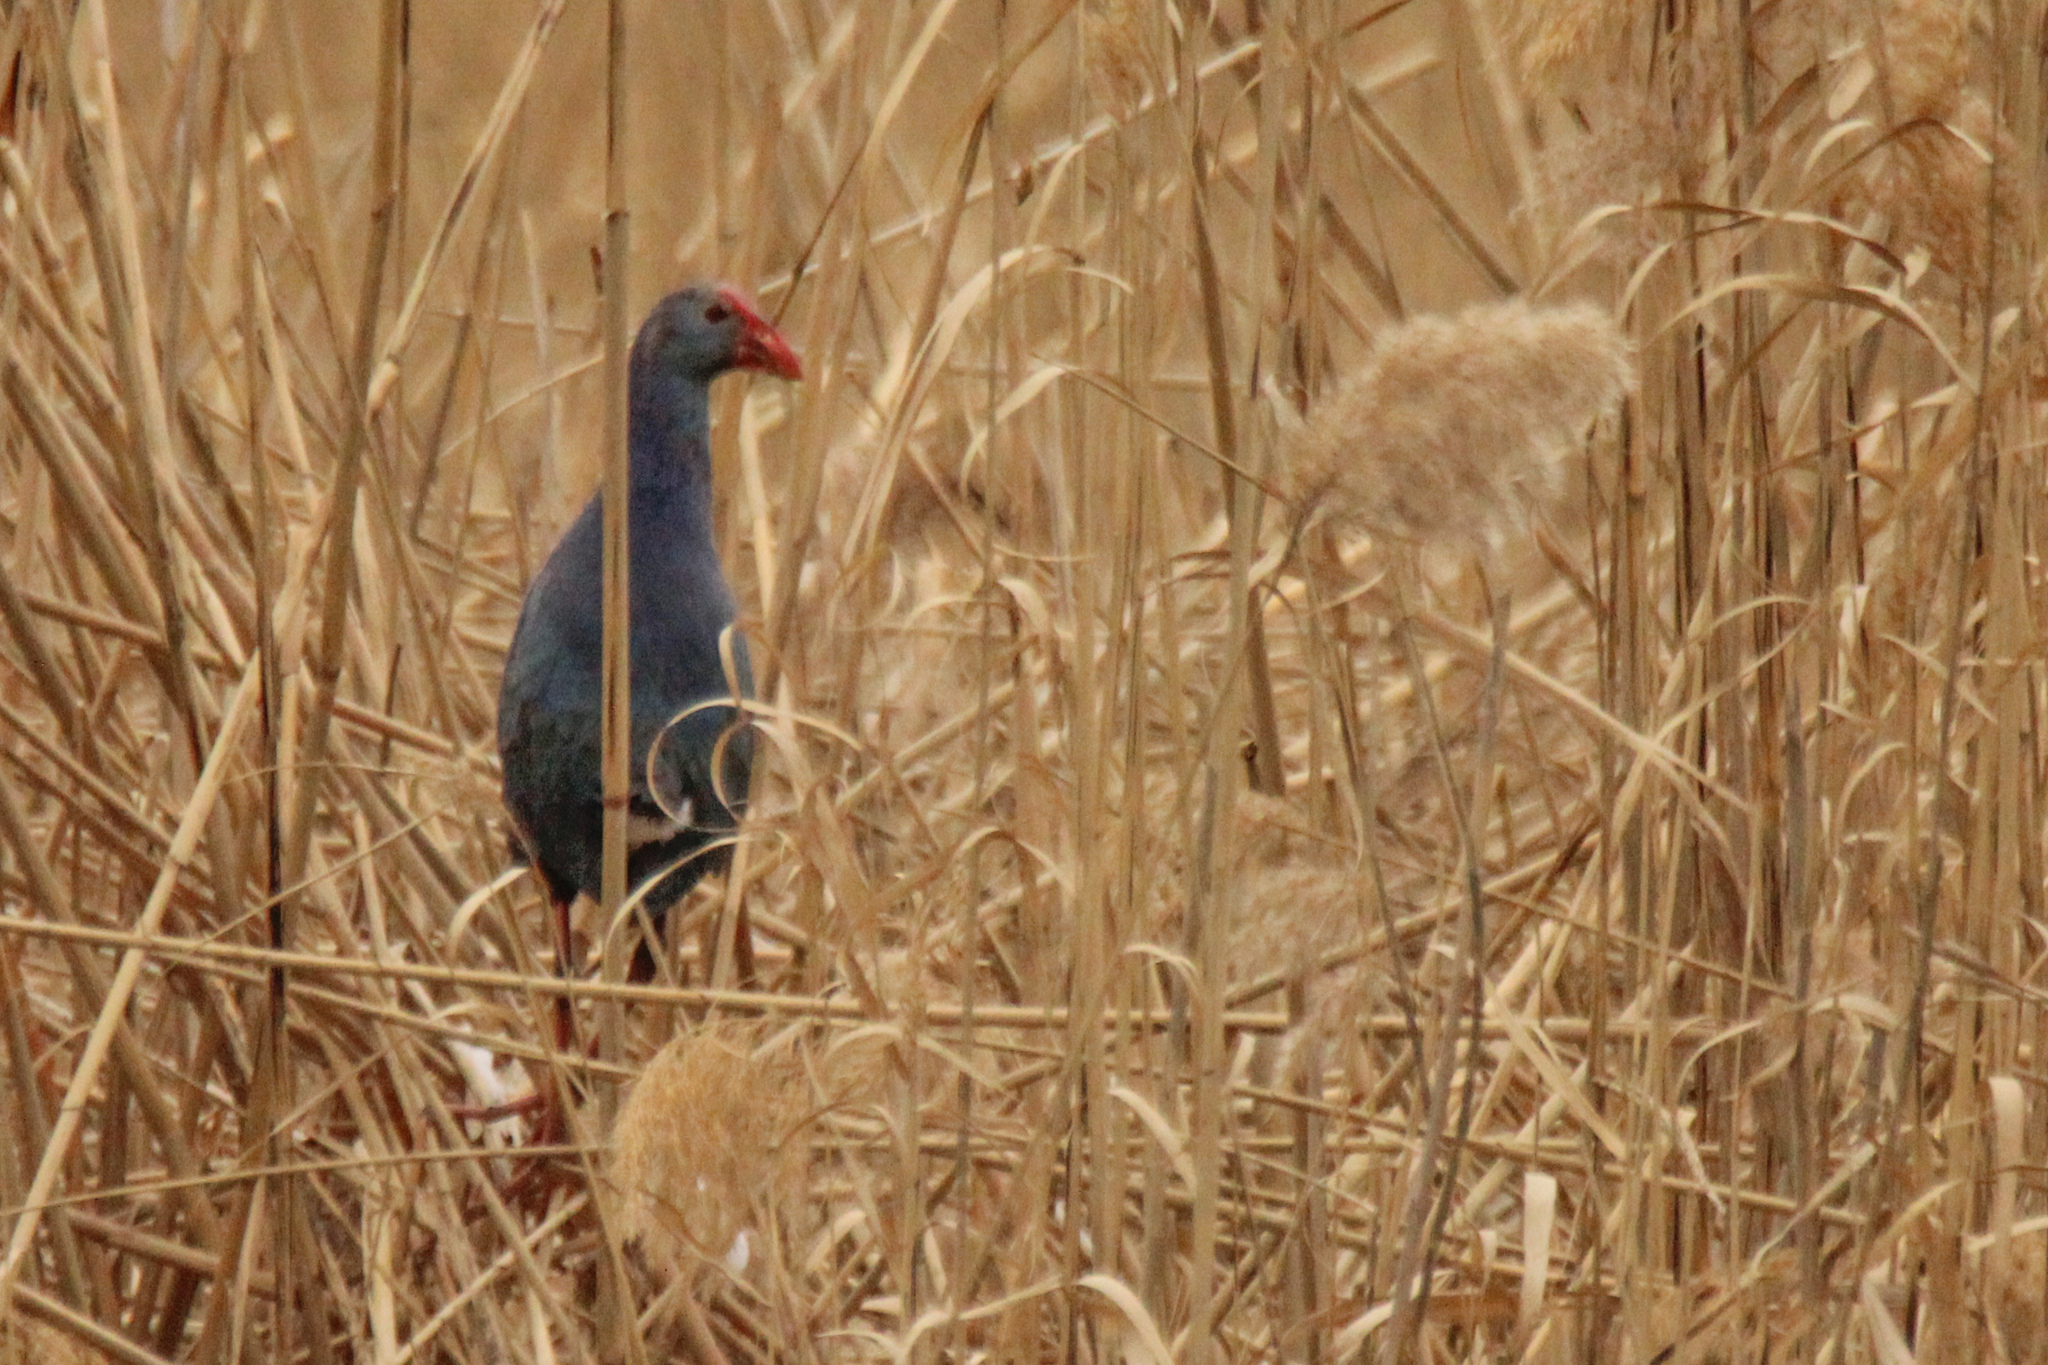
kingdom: Animalia
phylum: Chordata
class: Aves
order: Gruiformes
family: Rallidae
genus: Porphyrio
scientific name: Porphyrio porphyrio
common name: Purple swamphen
